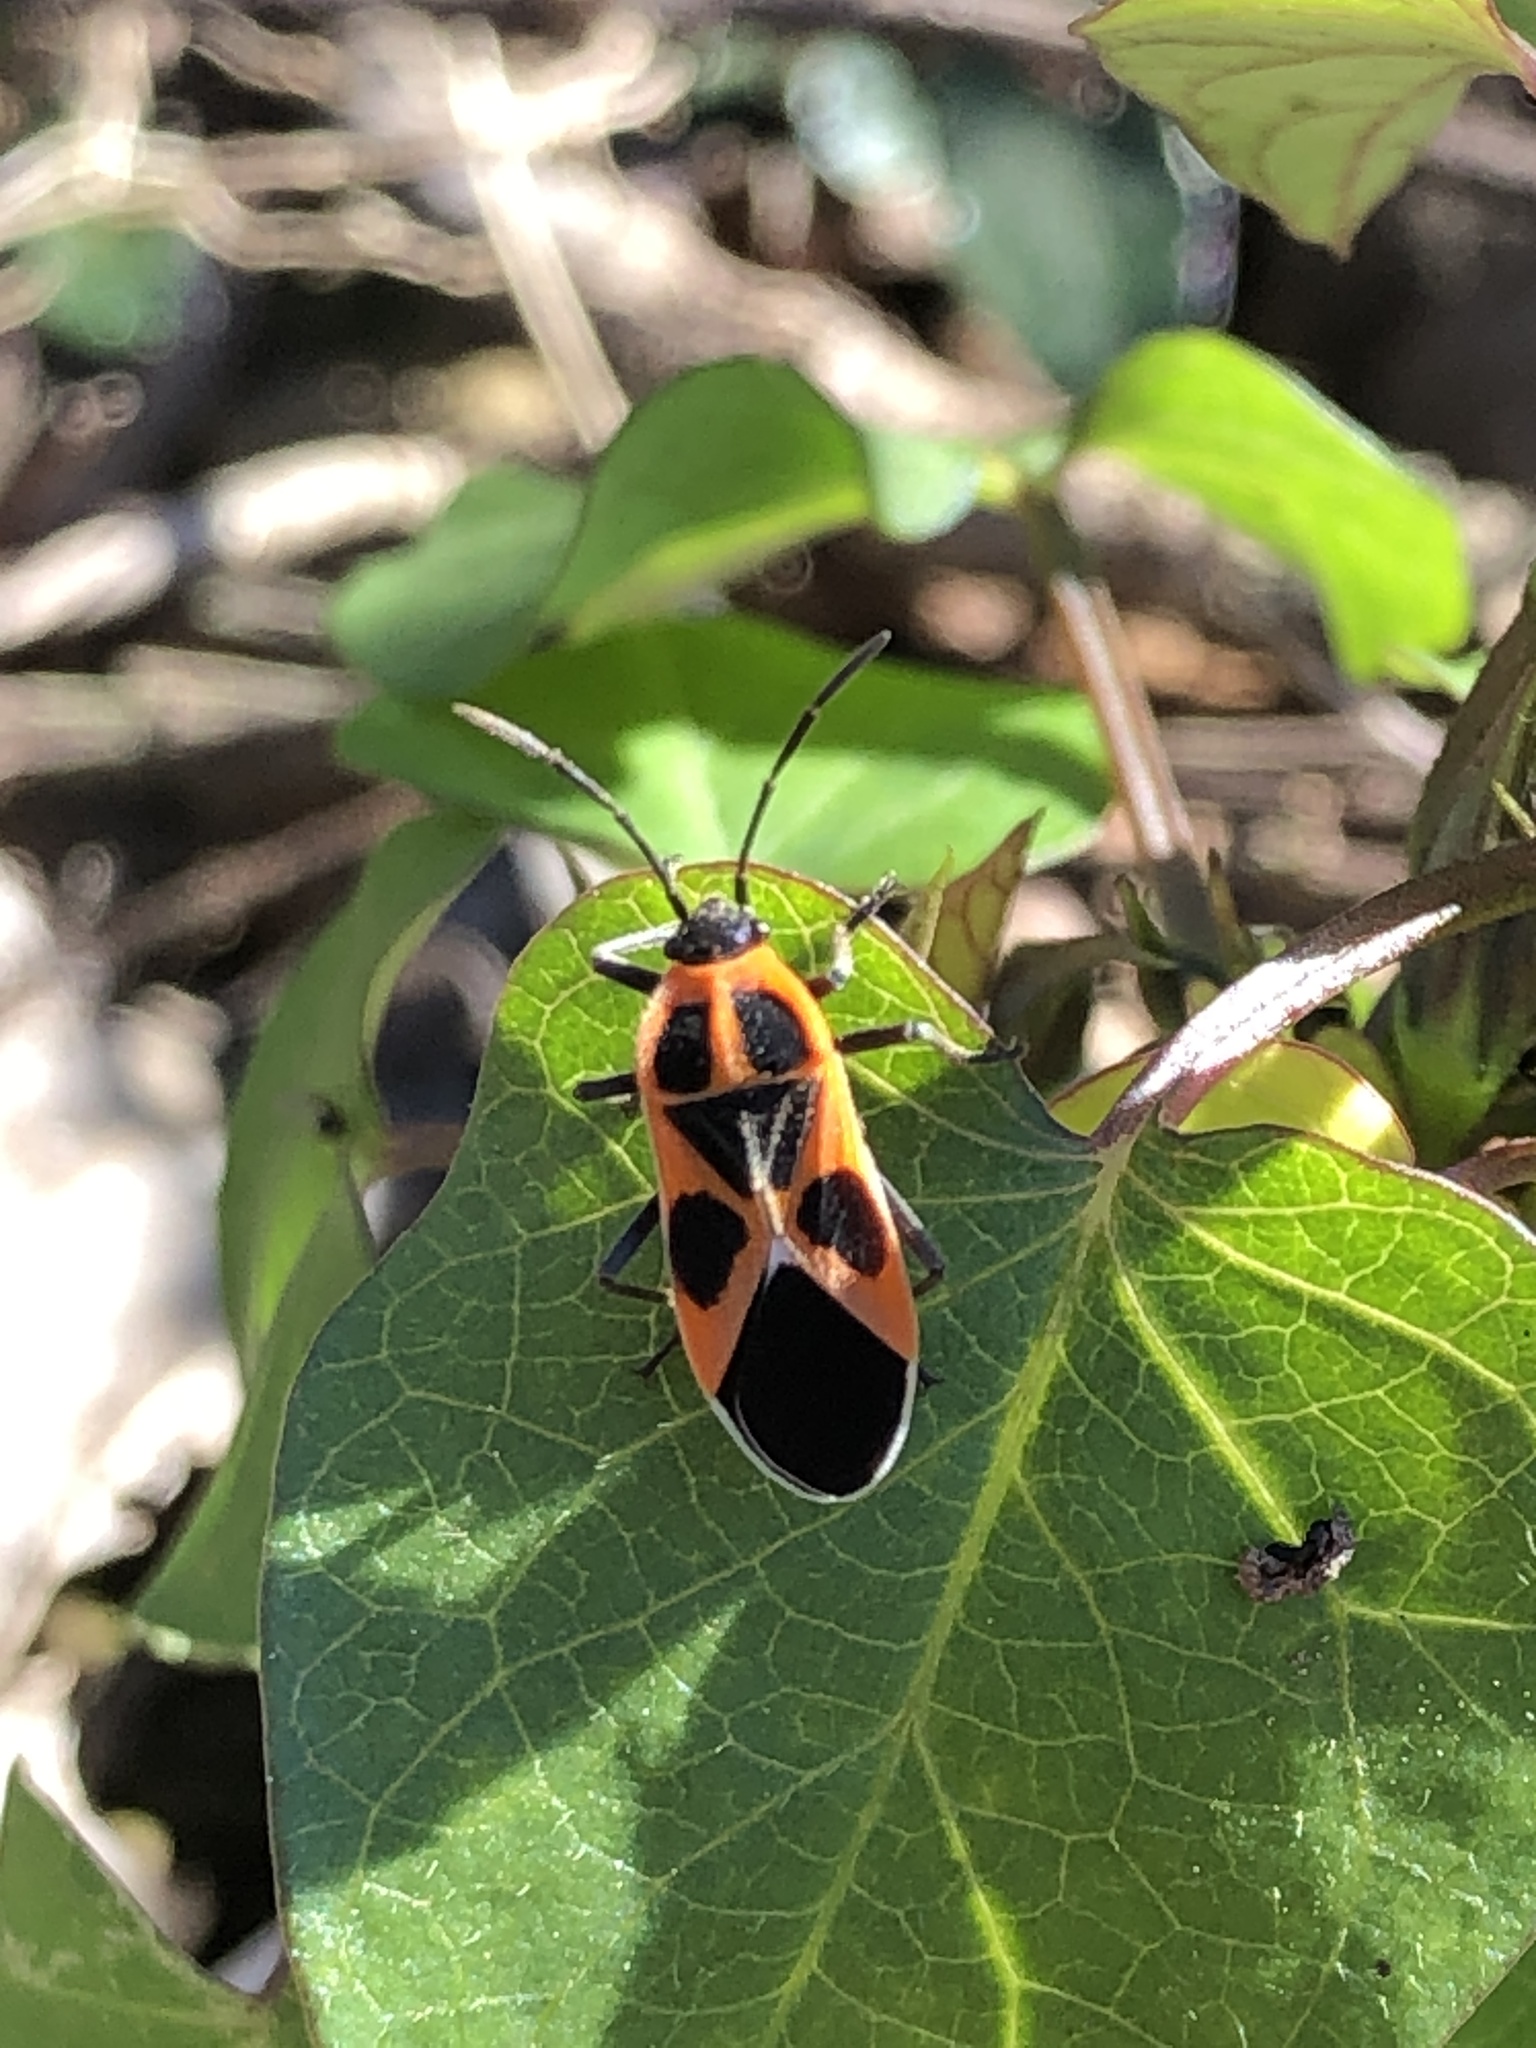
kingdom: Animalia
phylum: Arthropoda
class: Insecta
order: Hemiptera
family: Lygaeidae
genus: Tropidothorax
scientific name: Tropidothorax
